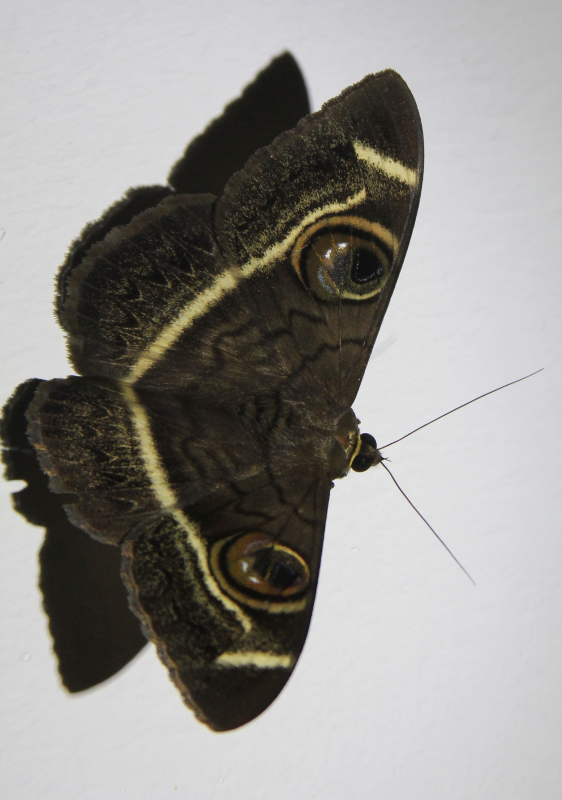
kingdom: Animalia
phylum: Arthropoda
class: Insecta
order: Lepidoptera
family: Erebidae
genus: Cyligramma
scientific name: Cyligramma latona
